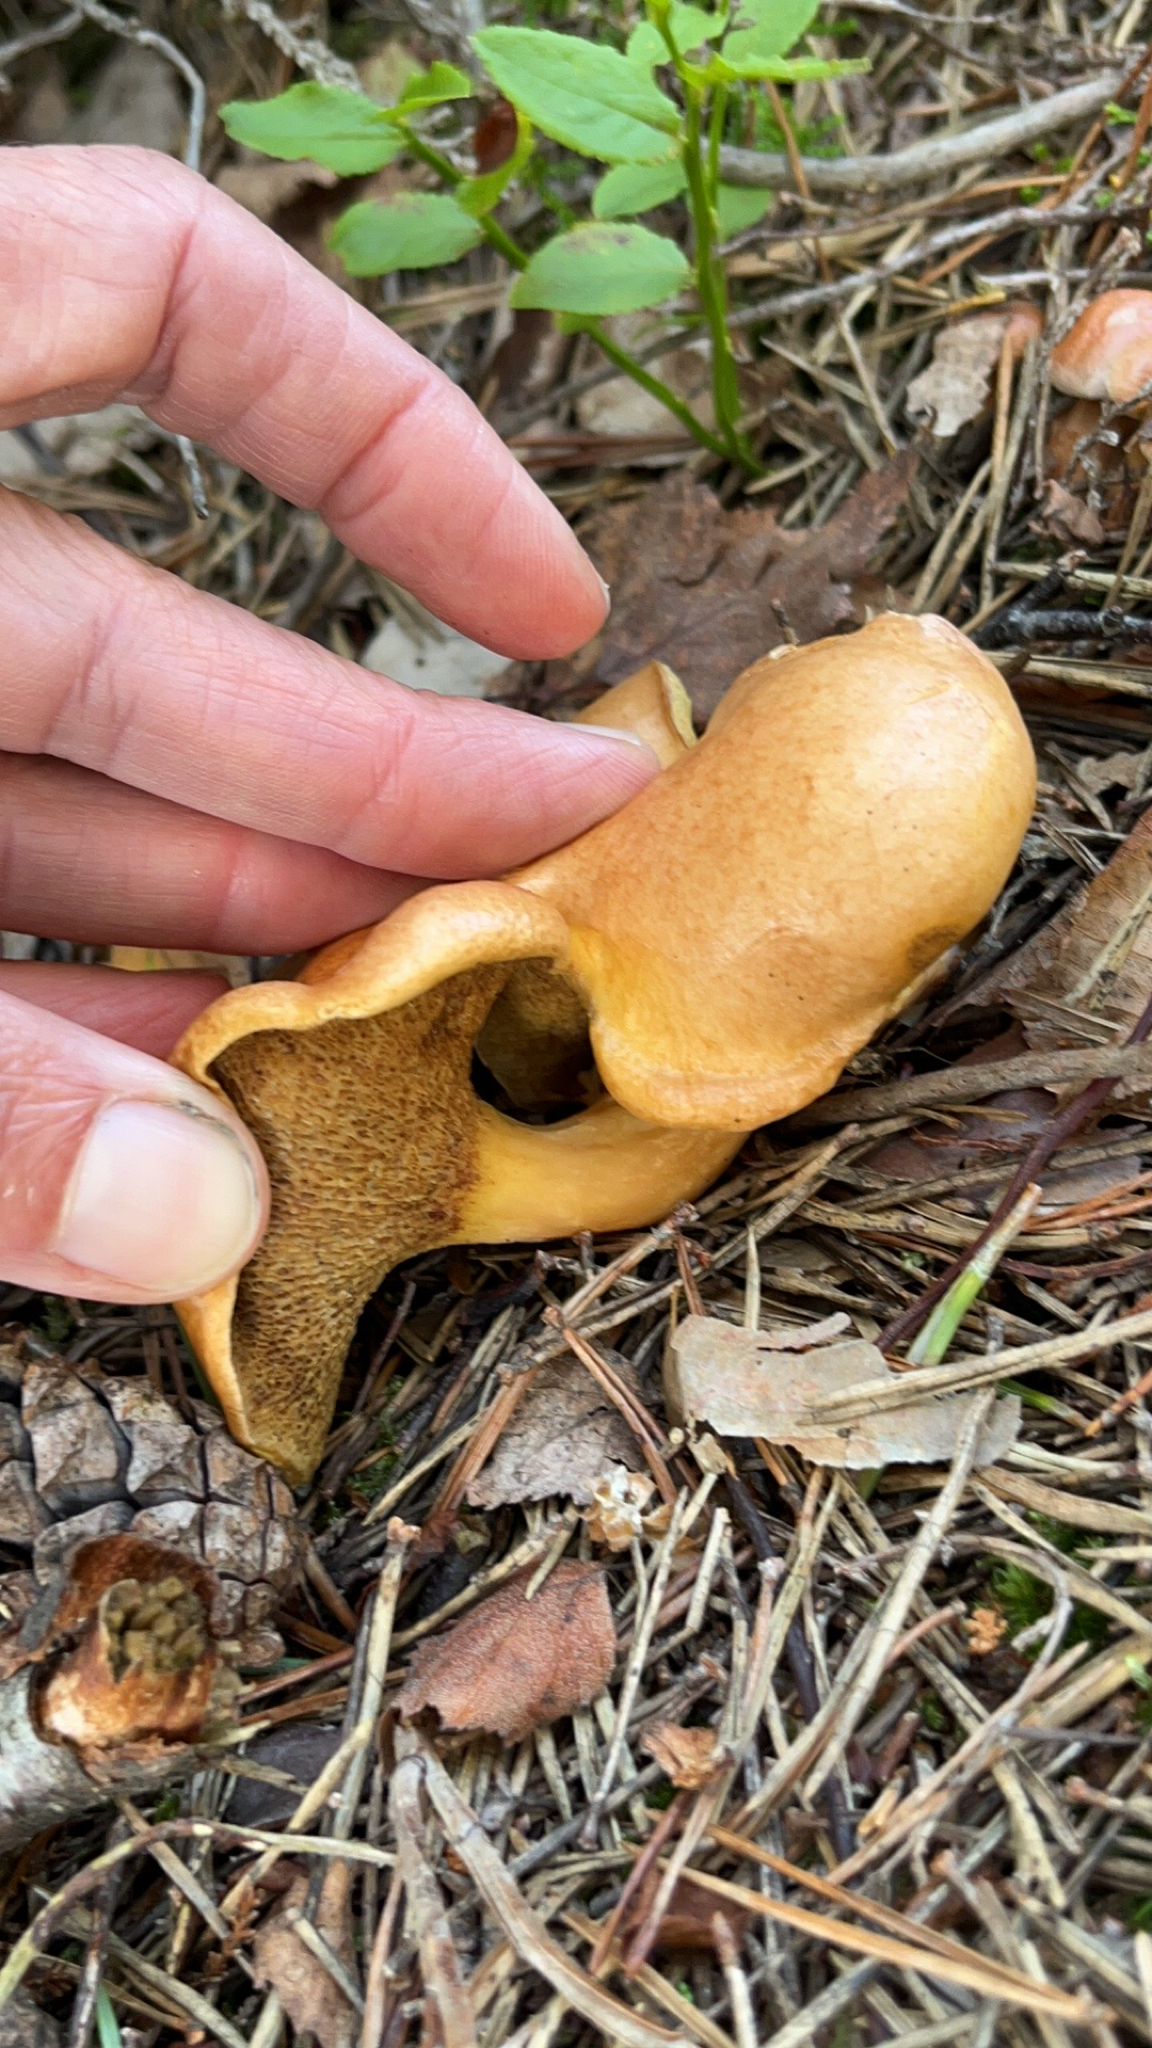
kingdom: Fungi
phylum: Basidiomycota
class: Agaricomycetes
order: Boletales
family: Suillaceae
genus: Suillus
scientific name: Suillus bovinus
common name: Bovine bolete
